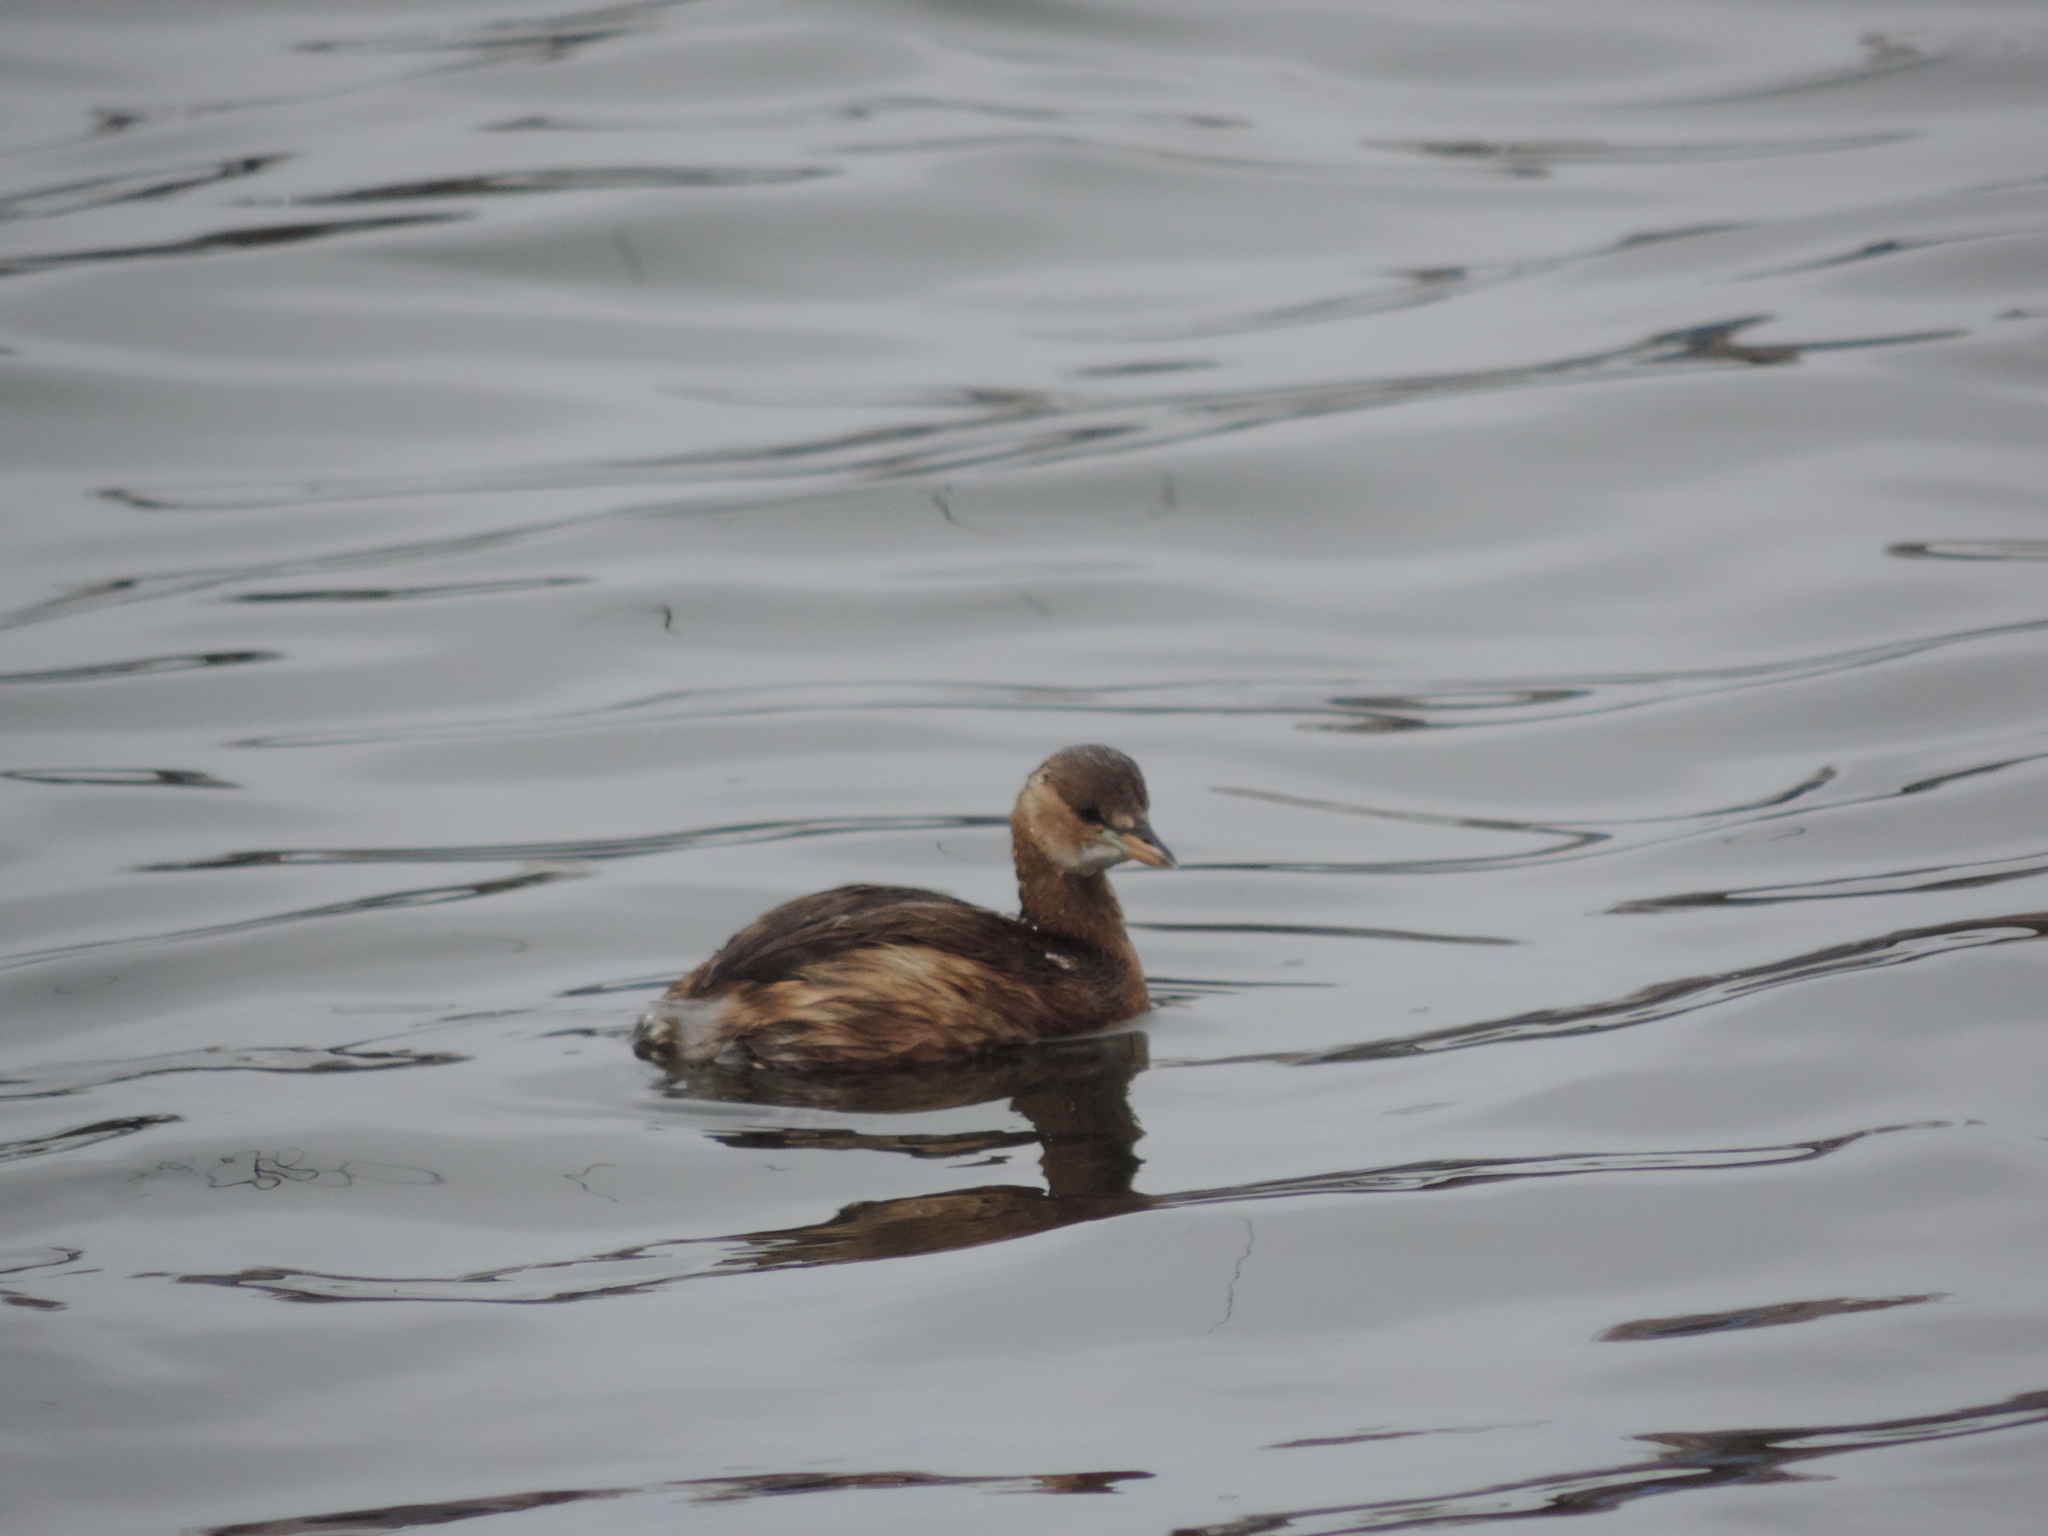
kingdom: Animalia
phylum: Chordata
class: Aves
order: Podicipediformes
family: Podicipedidae
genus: Tachybaptus
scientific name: Tachybaptus ruficollis
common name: Little grebe
